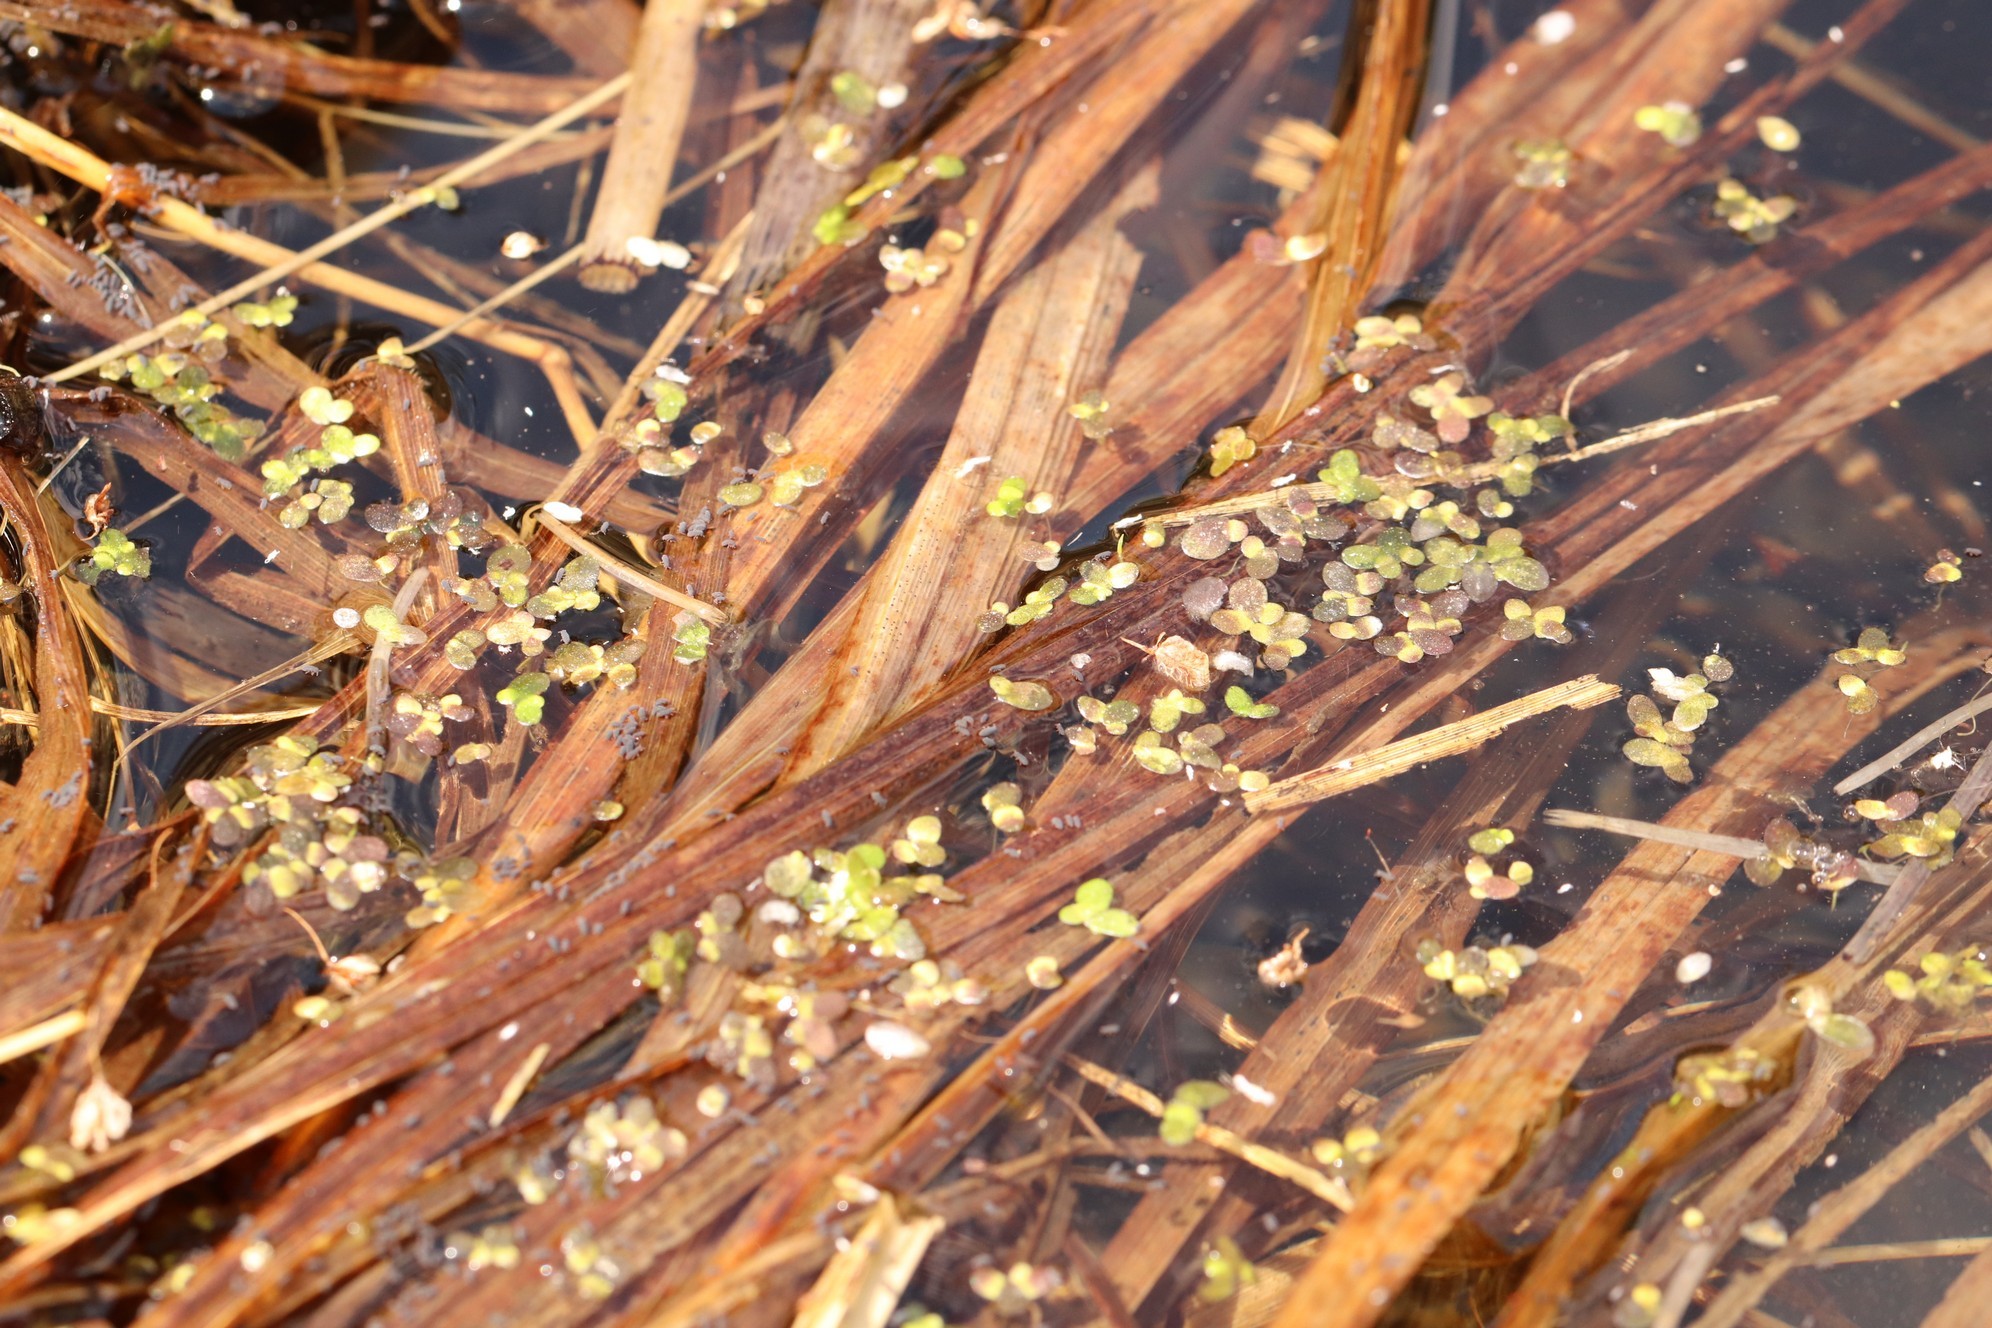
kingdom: Plantae
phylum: Tracheophyta
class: Liliopsida
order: Alismatales
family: Araceae
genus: Lemna
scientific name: Lemna minor
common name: Common duckweed
